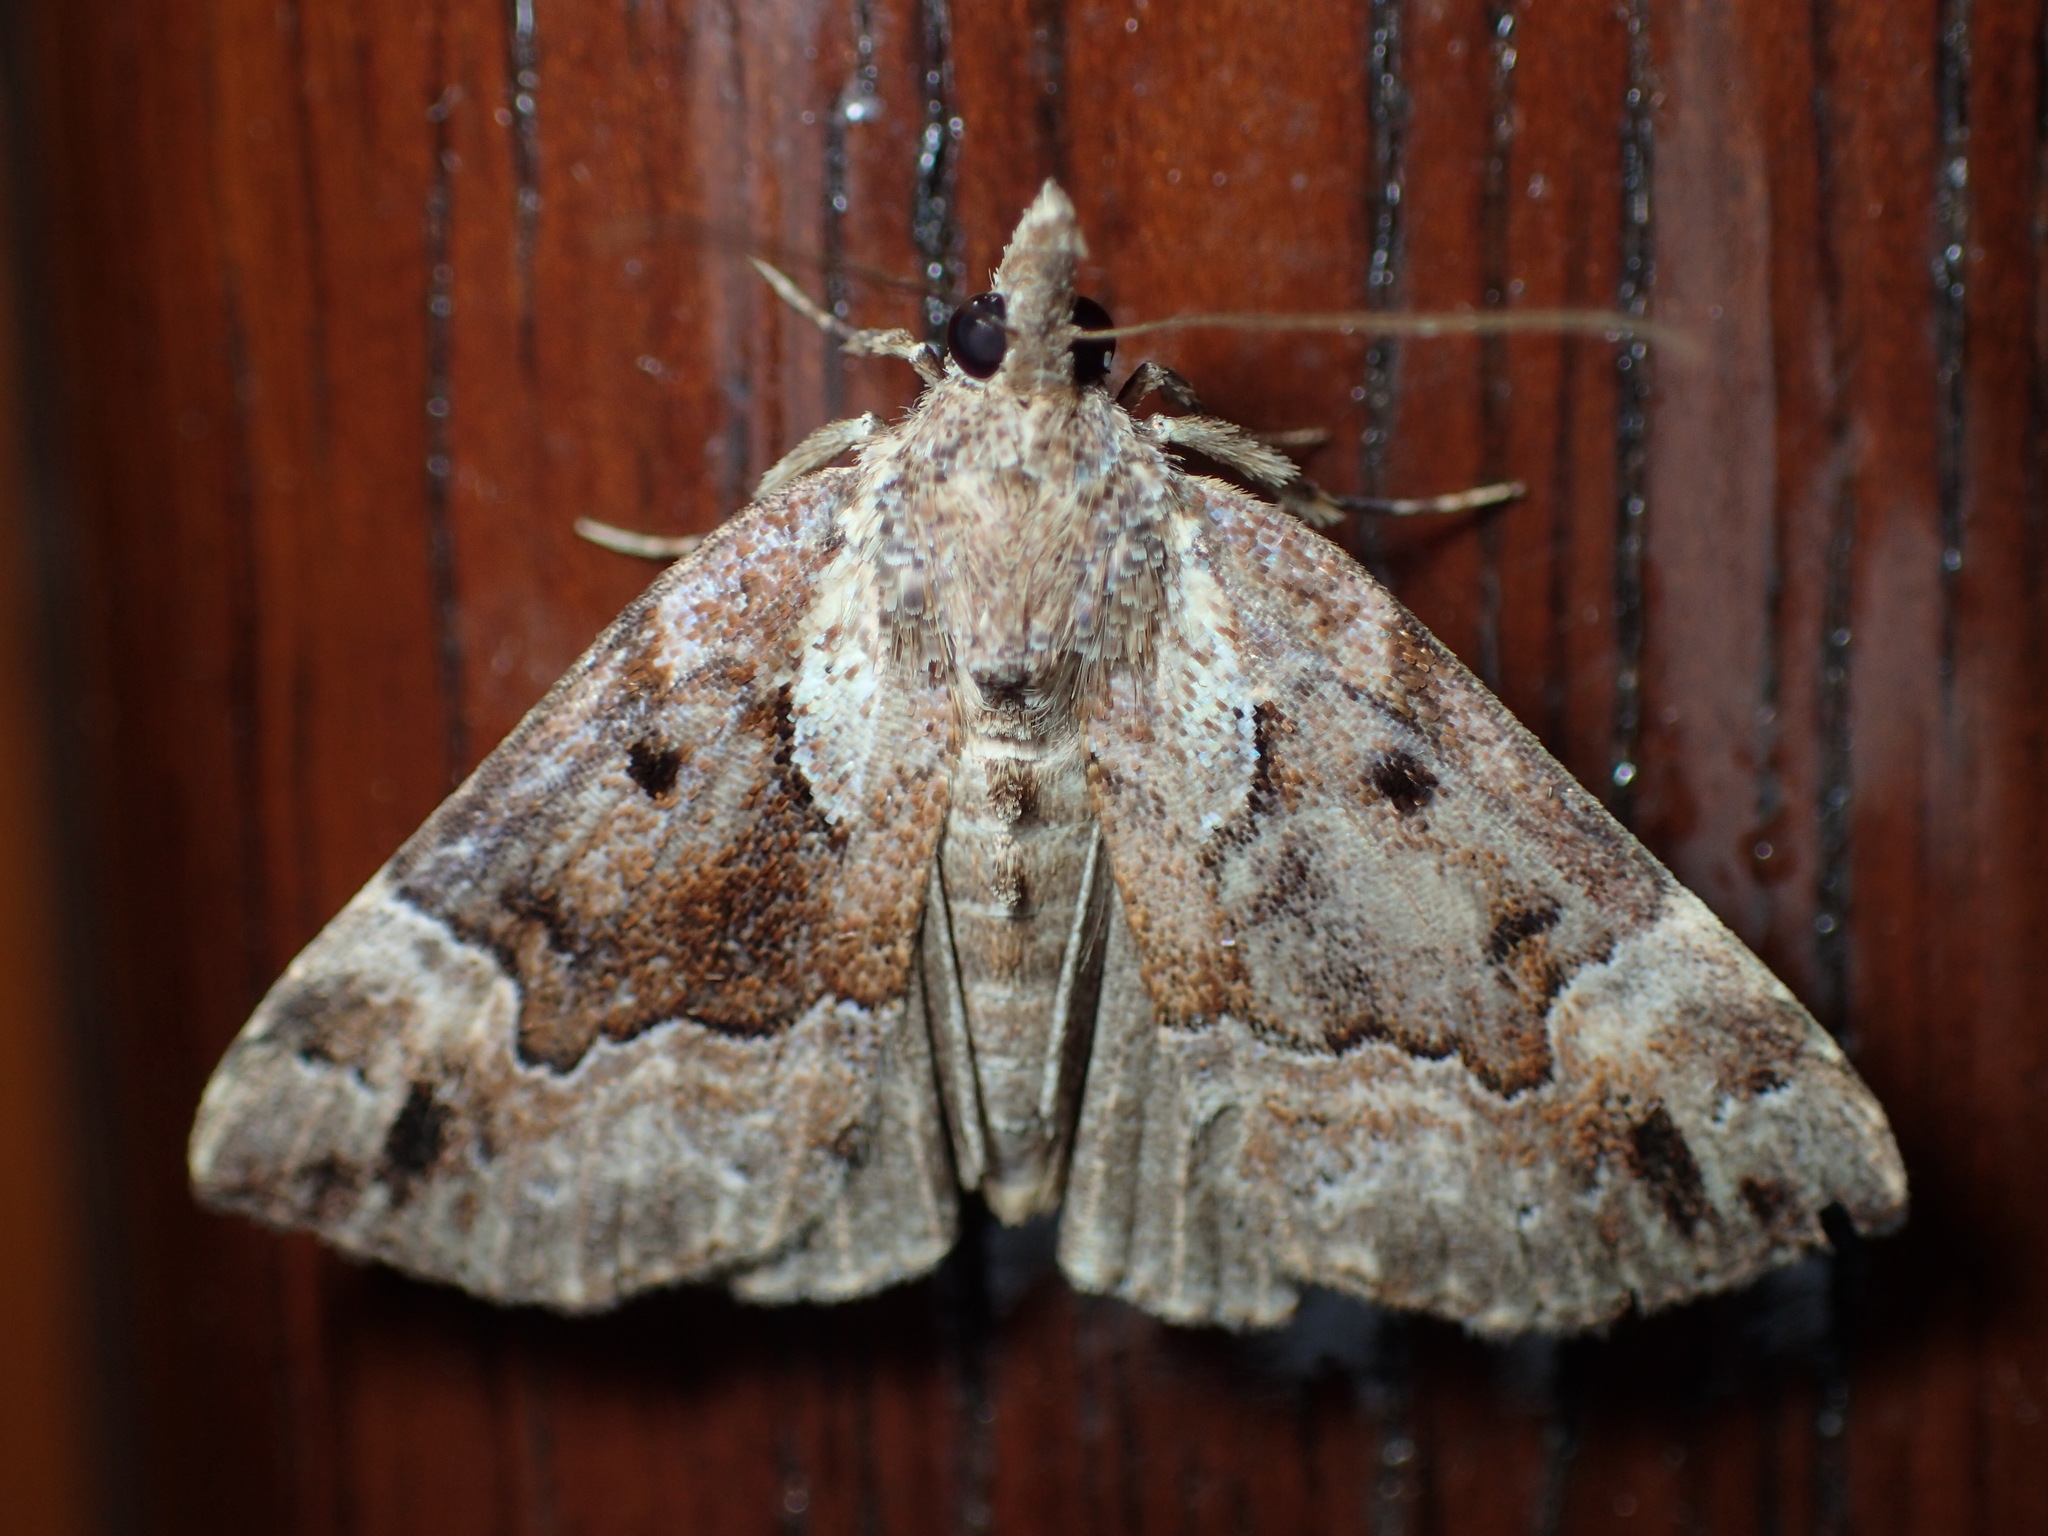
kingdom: Animalia
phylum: Arthropoda
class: Insecta
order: Lepidoptera
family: Erebidae
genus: Hypena
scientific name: Hypena palparia
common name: Mottled bomolocha moth
